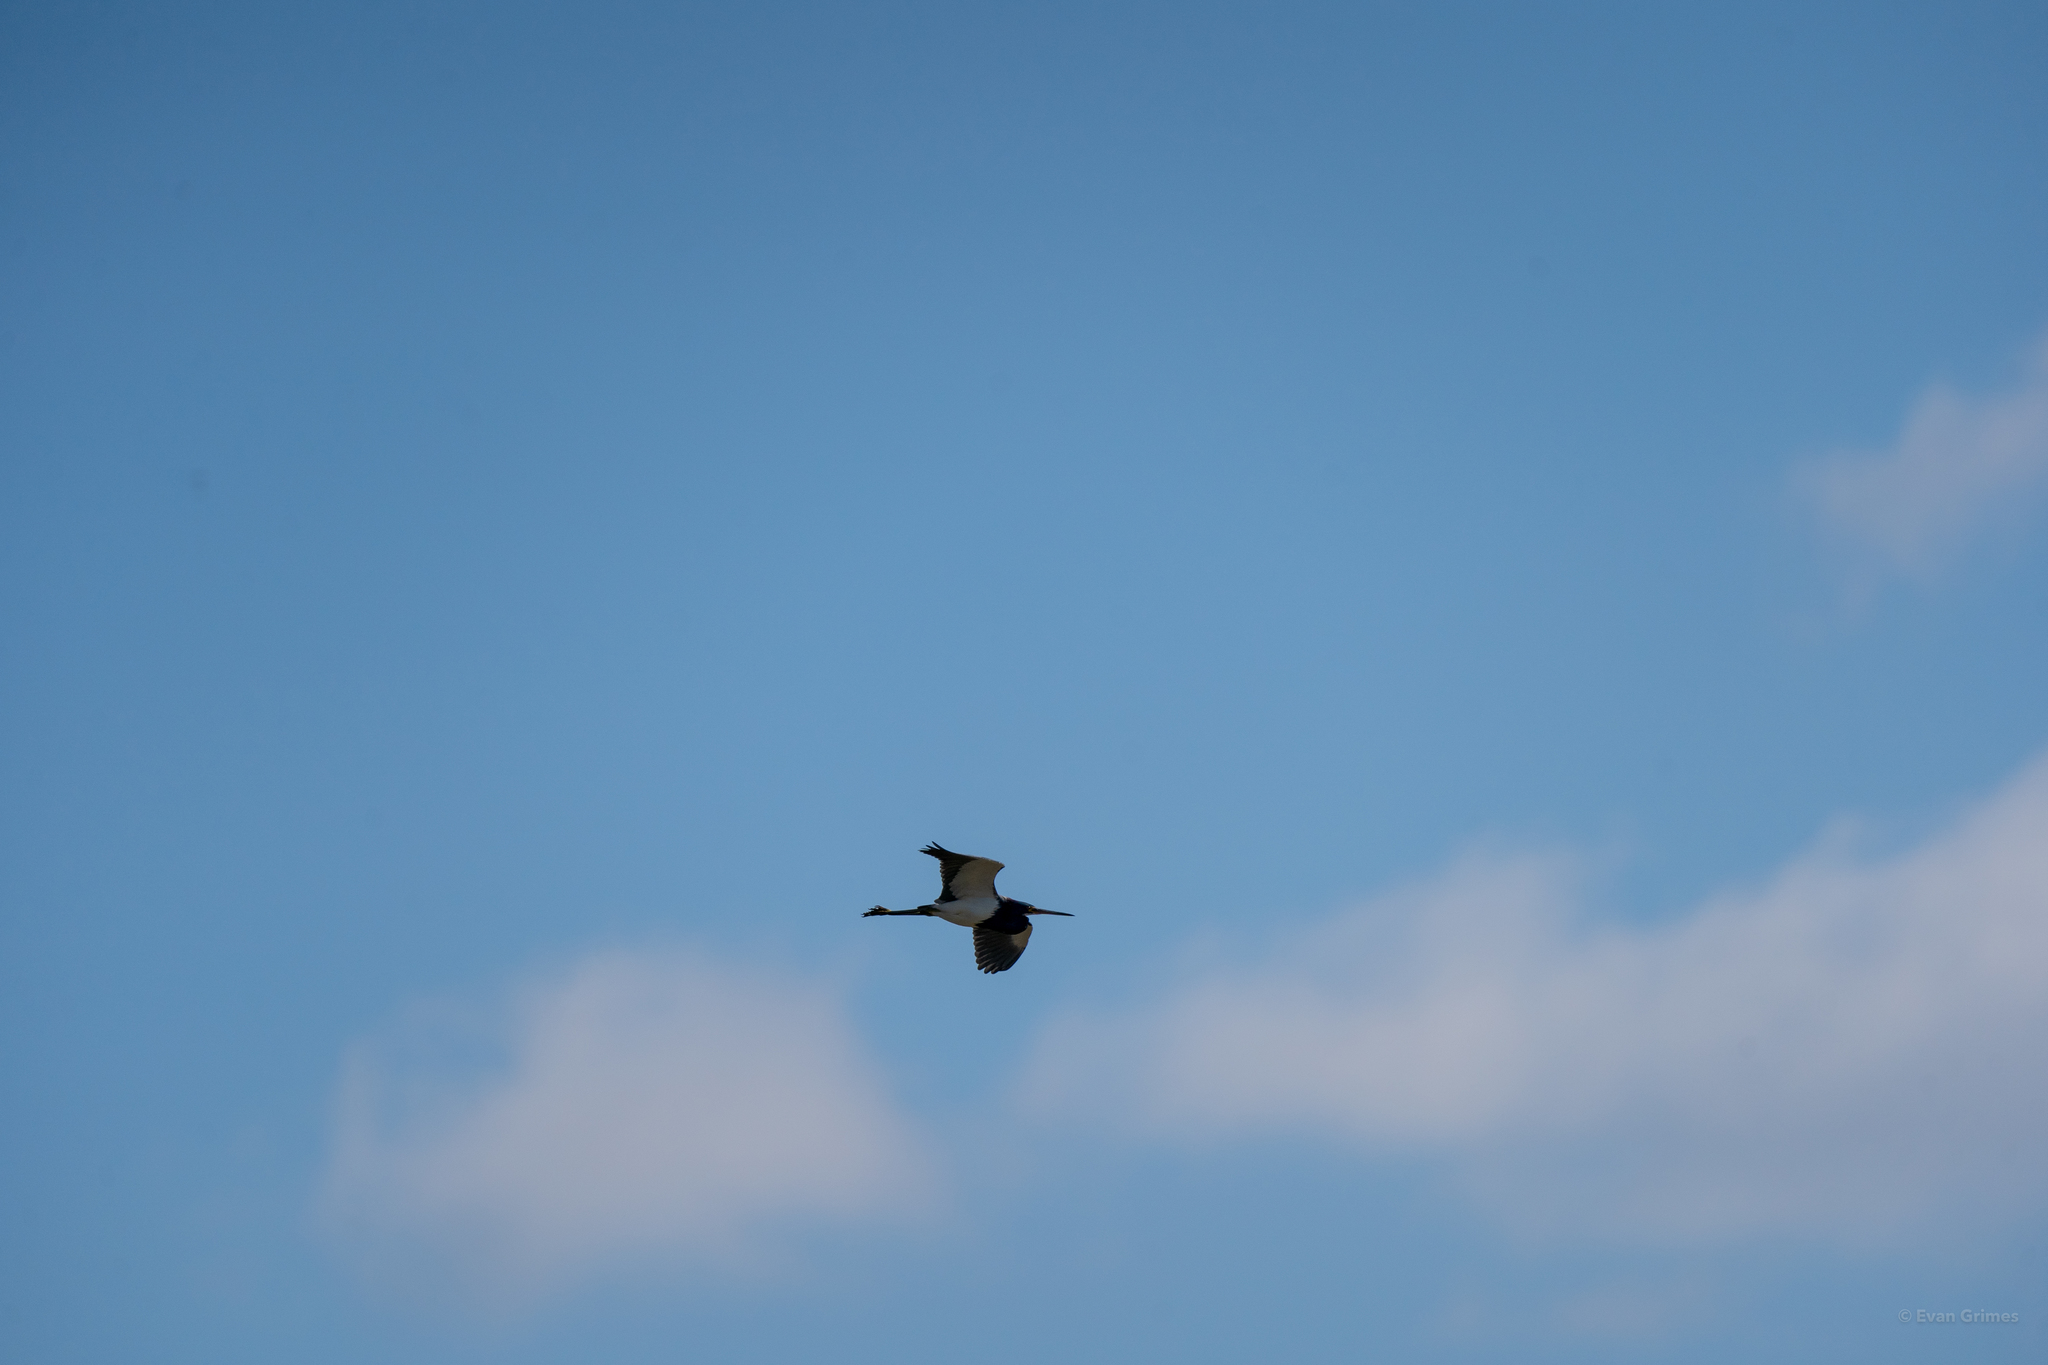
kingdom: Animalia
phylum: Chordata
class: Aves
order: Pelecaniformes
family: Ardeidae
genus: Egretta
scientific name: Egretta tricolor
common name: Tricolored heron
